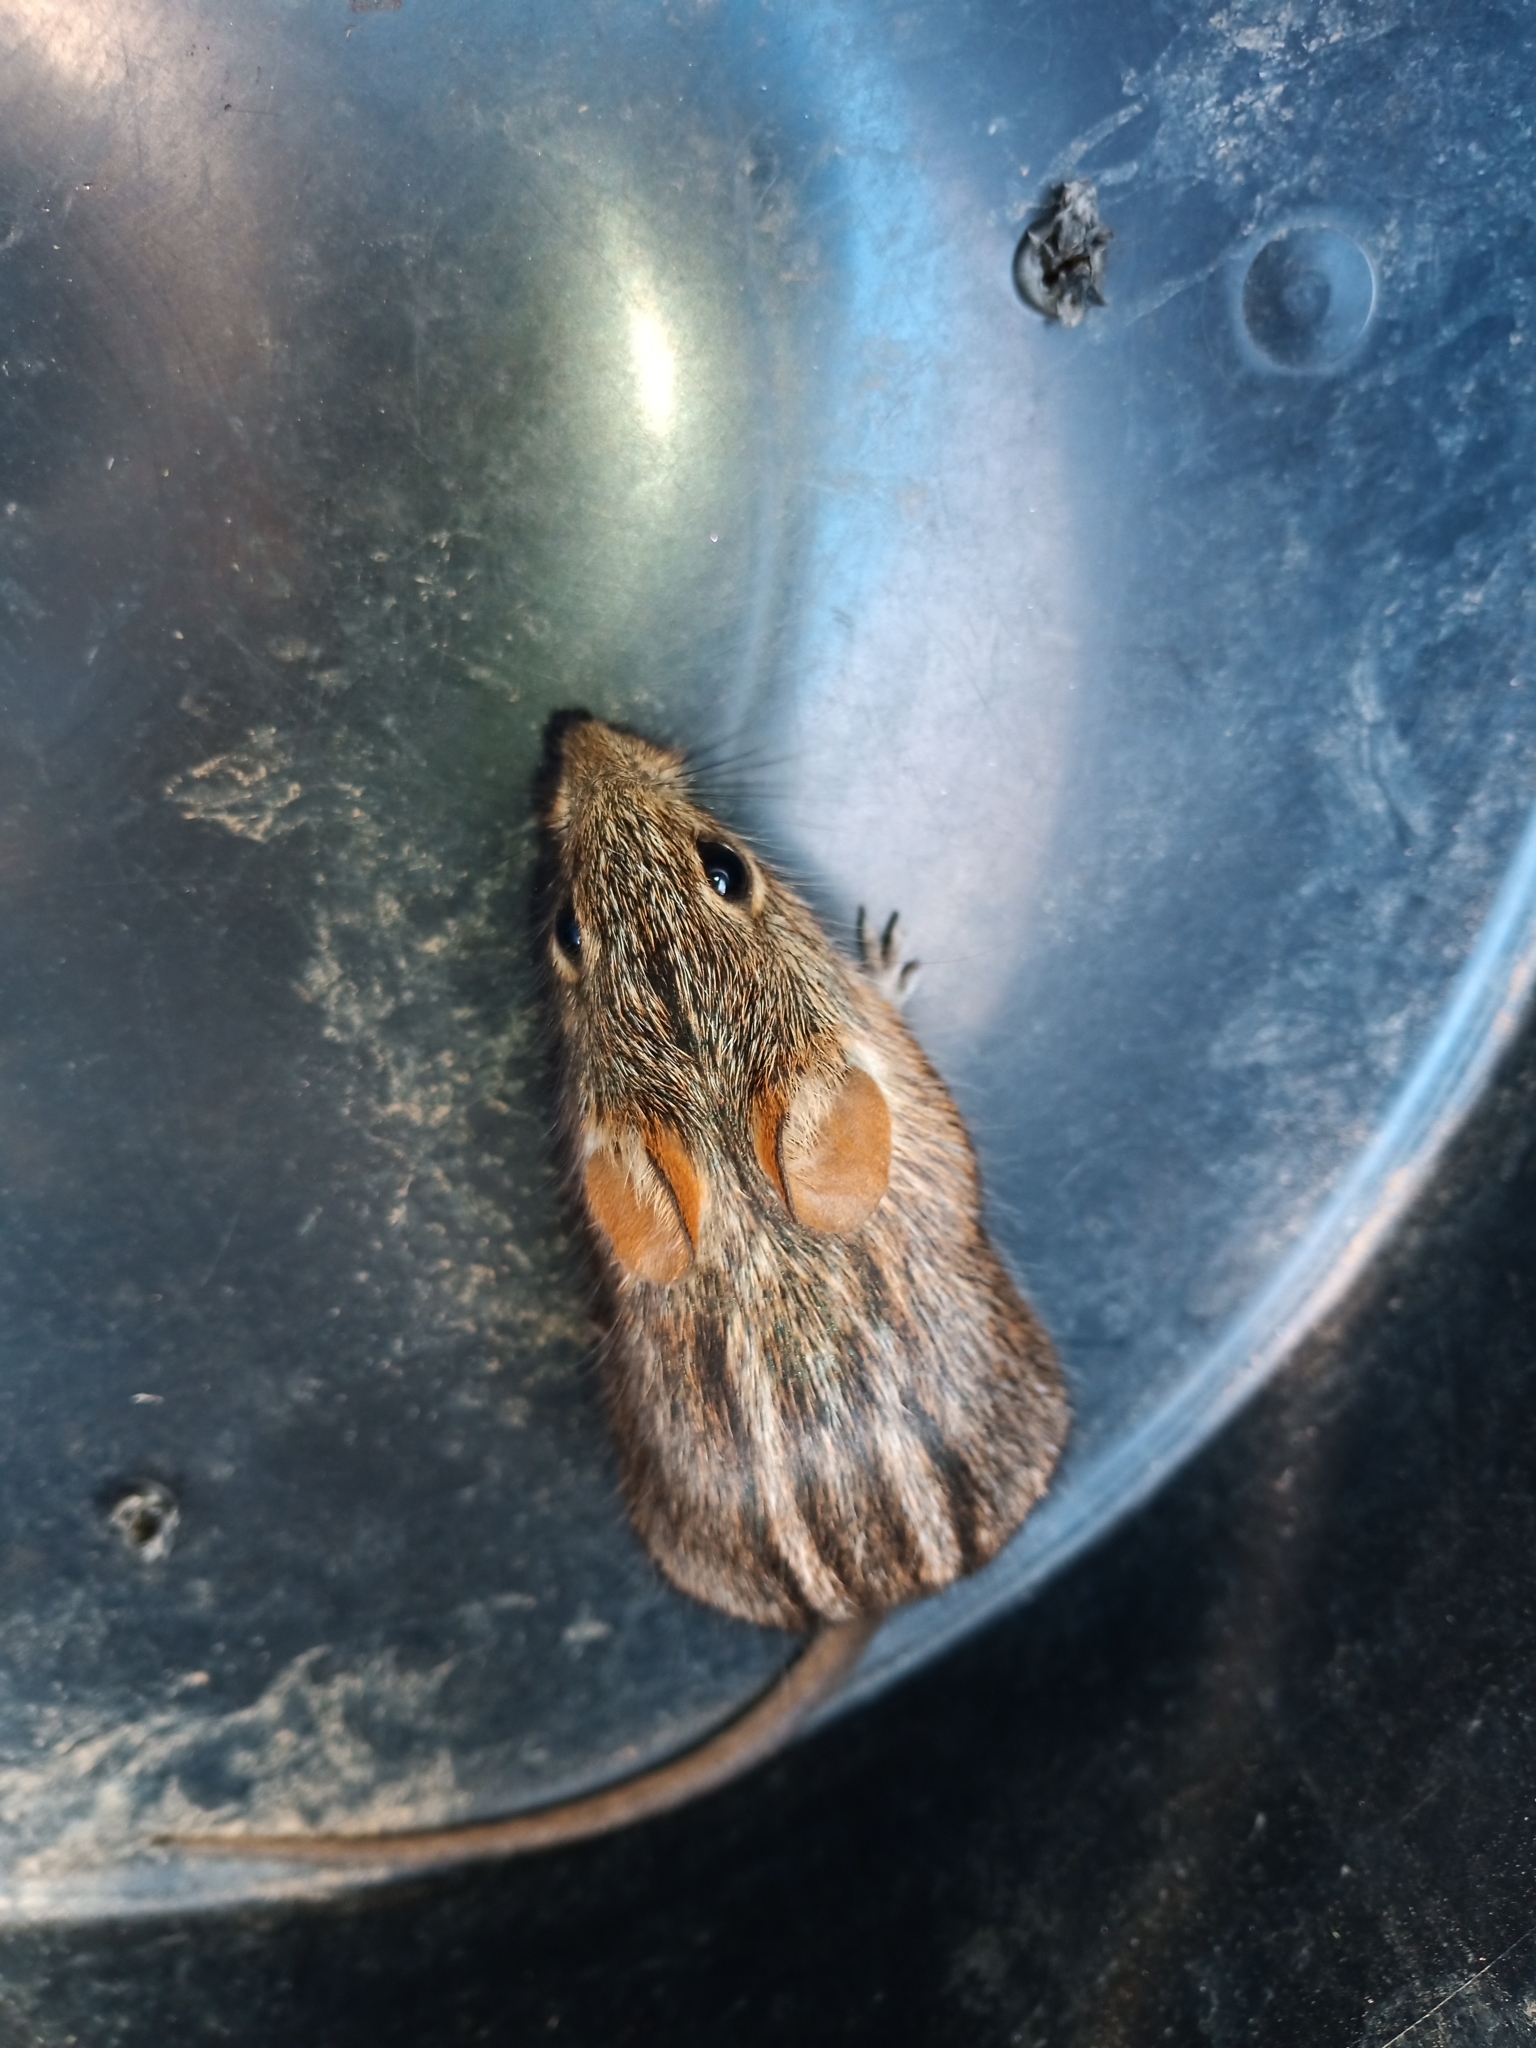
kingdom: Animalia
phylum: Chordata
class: Mammalia
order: Rodentia
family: Muridae
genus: Rhabdomys
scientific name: Rhabdomys pumilio
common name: Xeric four-striped grass rat
